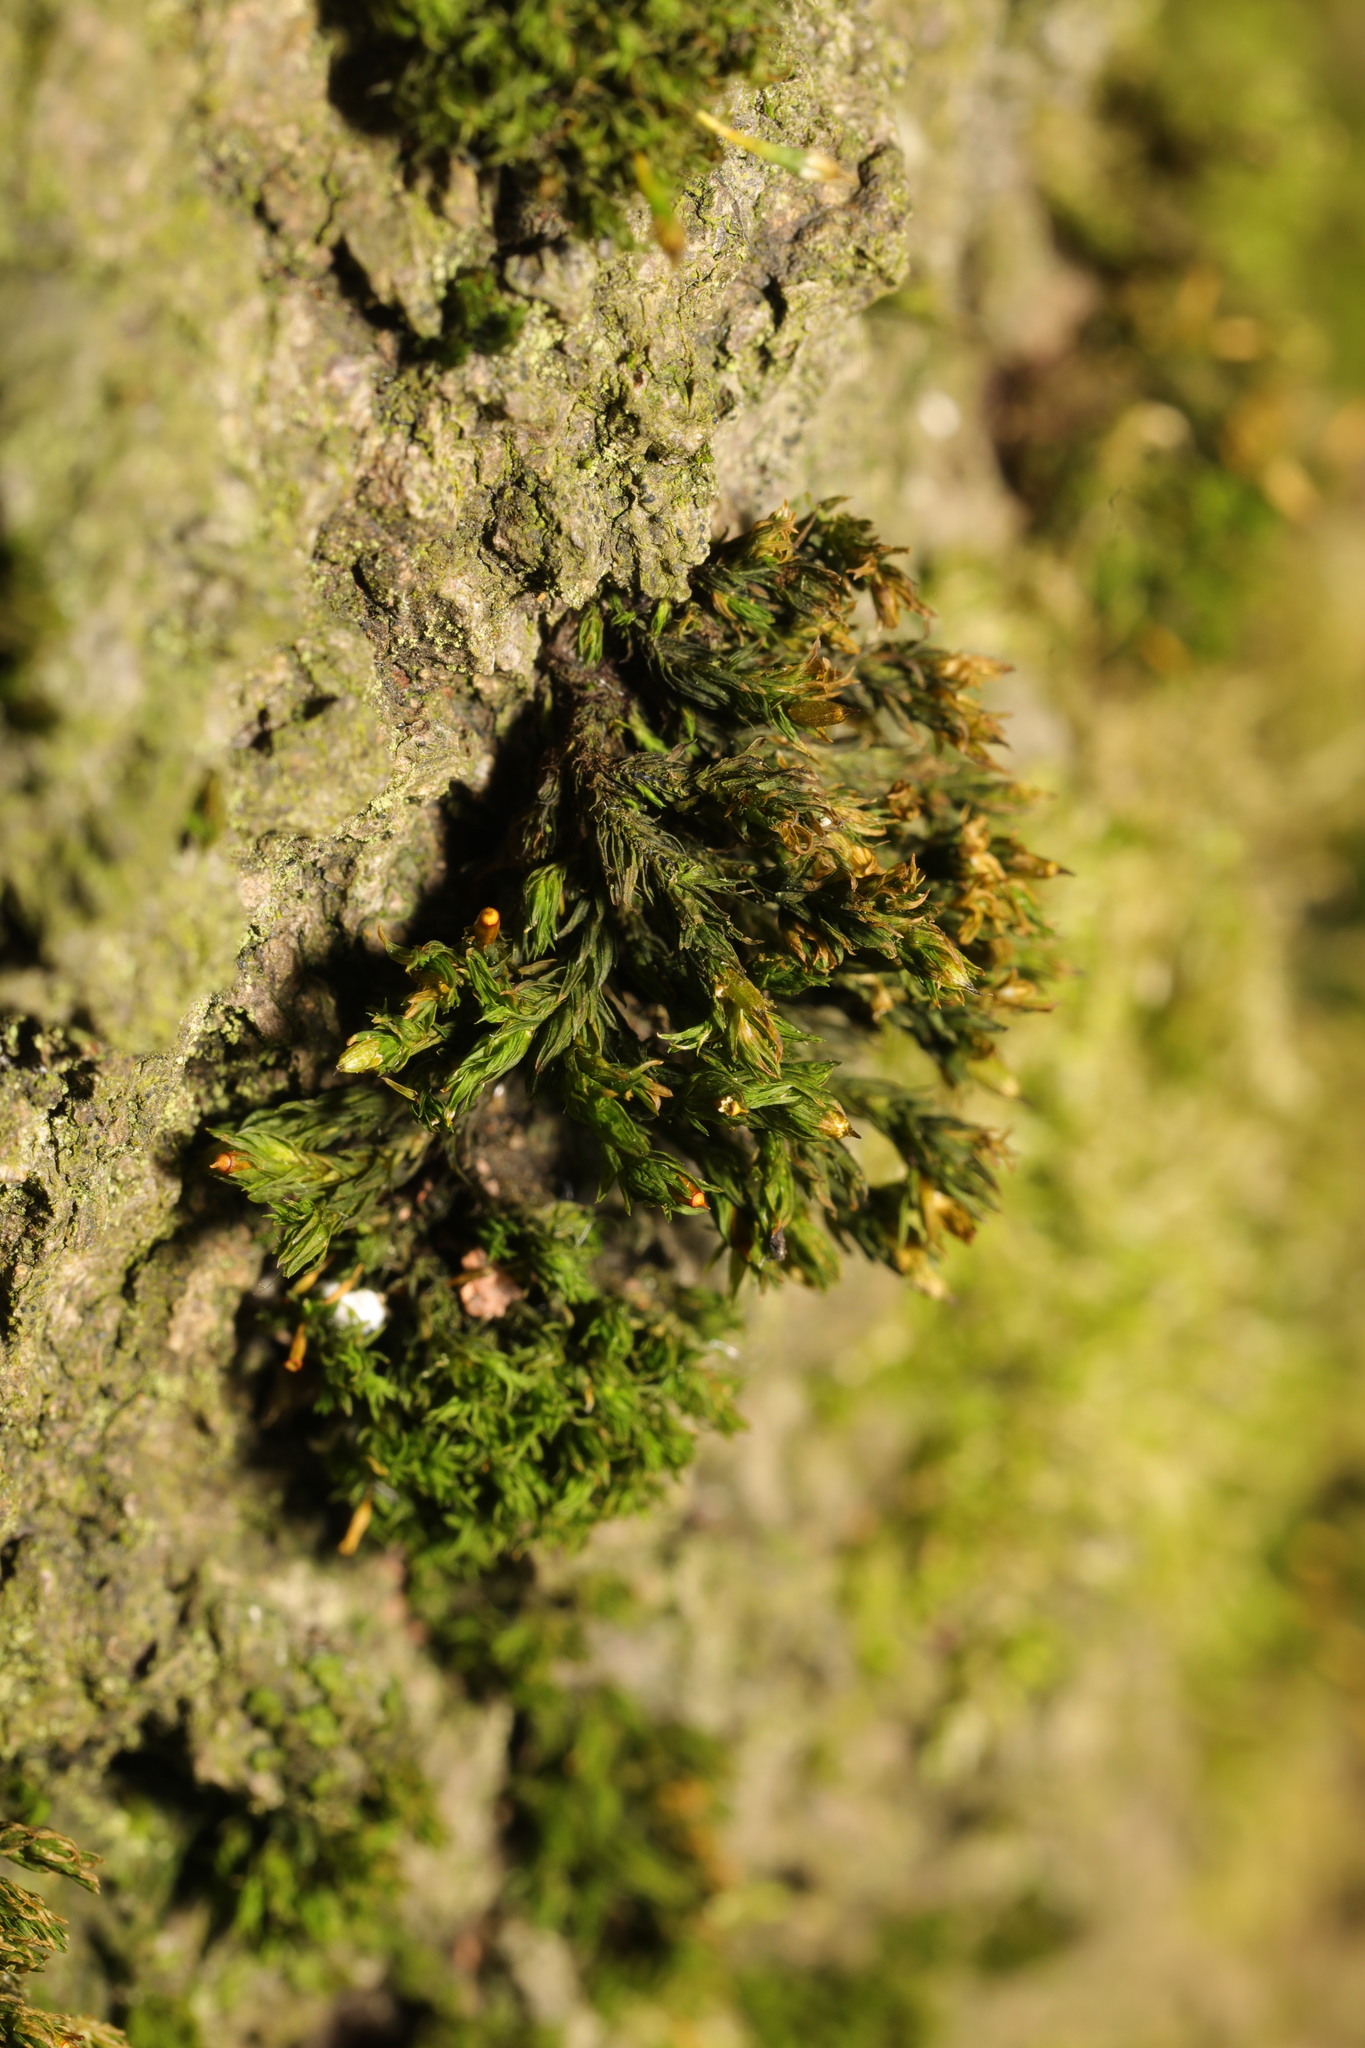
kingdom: Plantae
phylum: Bryophyta
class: Bryopsida
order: Orthotrichales
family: Orthotrichaceae
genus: Lewinskya
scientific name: Lewinskya affinis
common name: Wood bristle-moss
